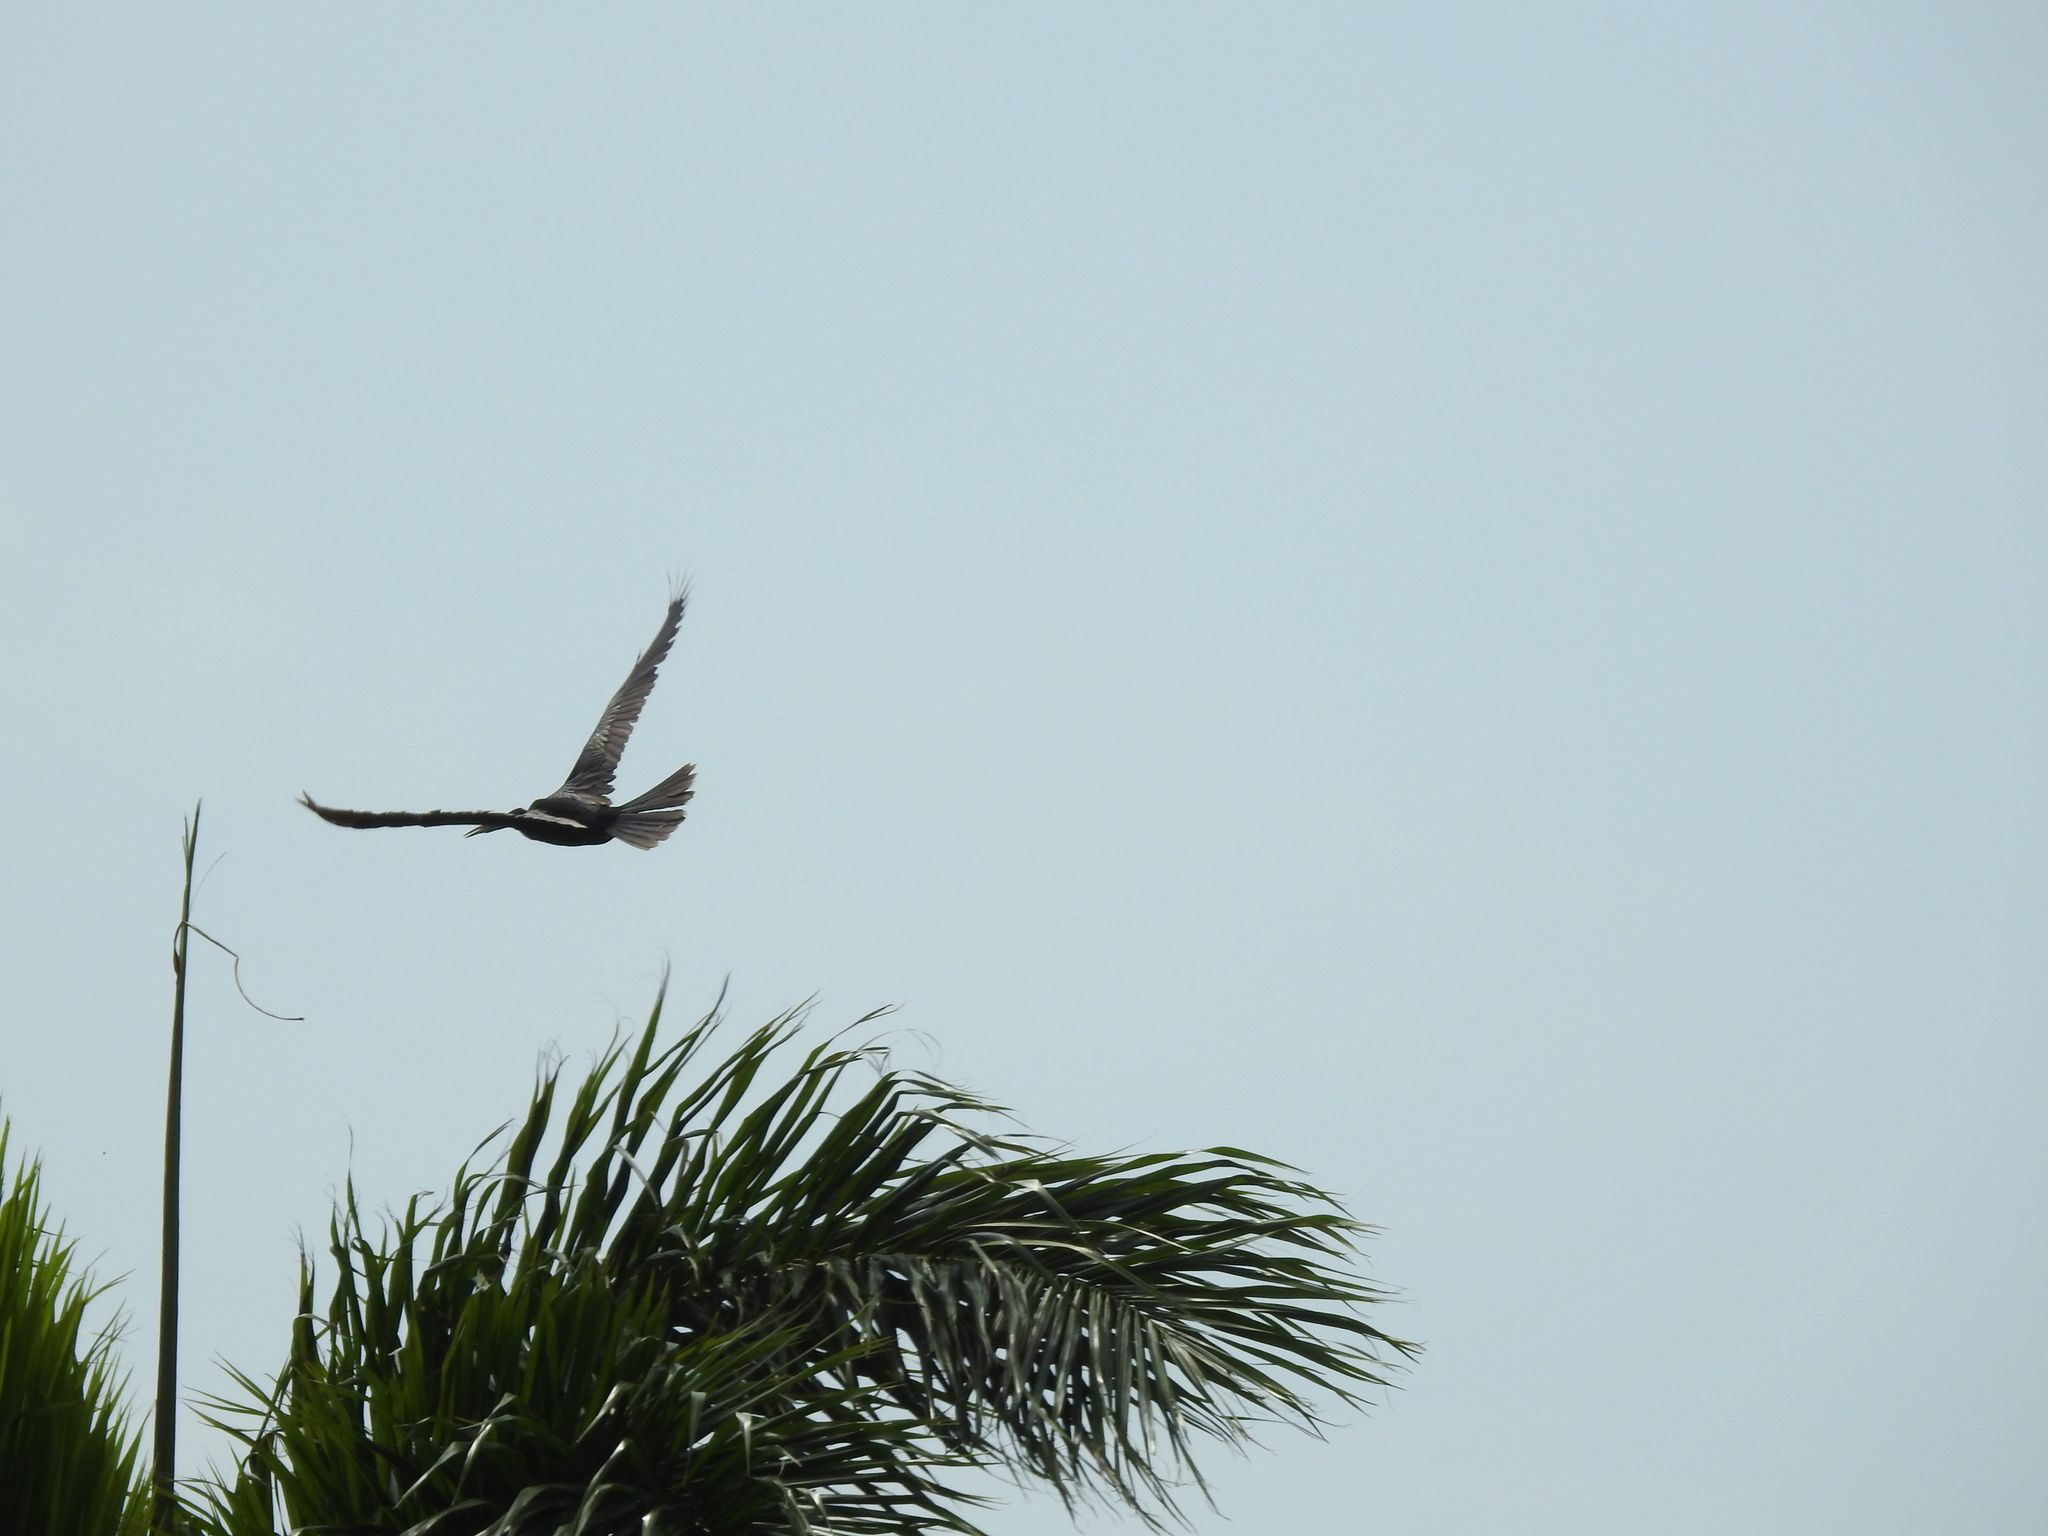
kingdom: Animalia
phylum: Chordata
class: Aves
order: Suliformes
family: Anhingidae
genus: Anhinga
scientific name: Anhinga anhinga
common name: Anhinga
